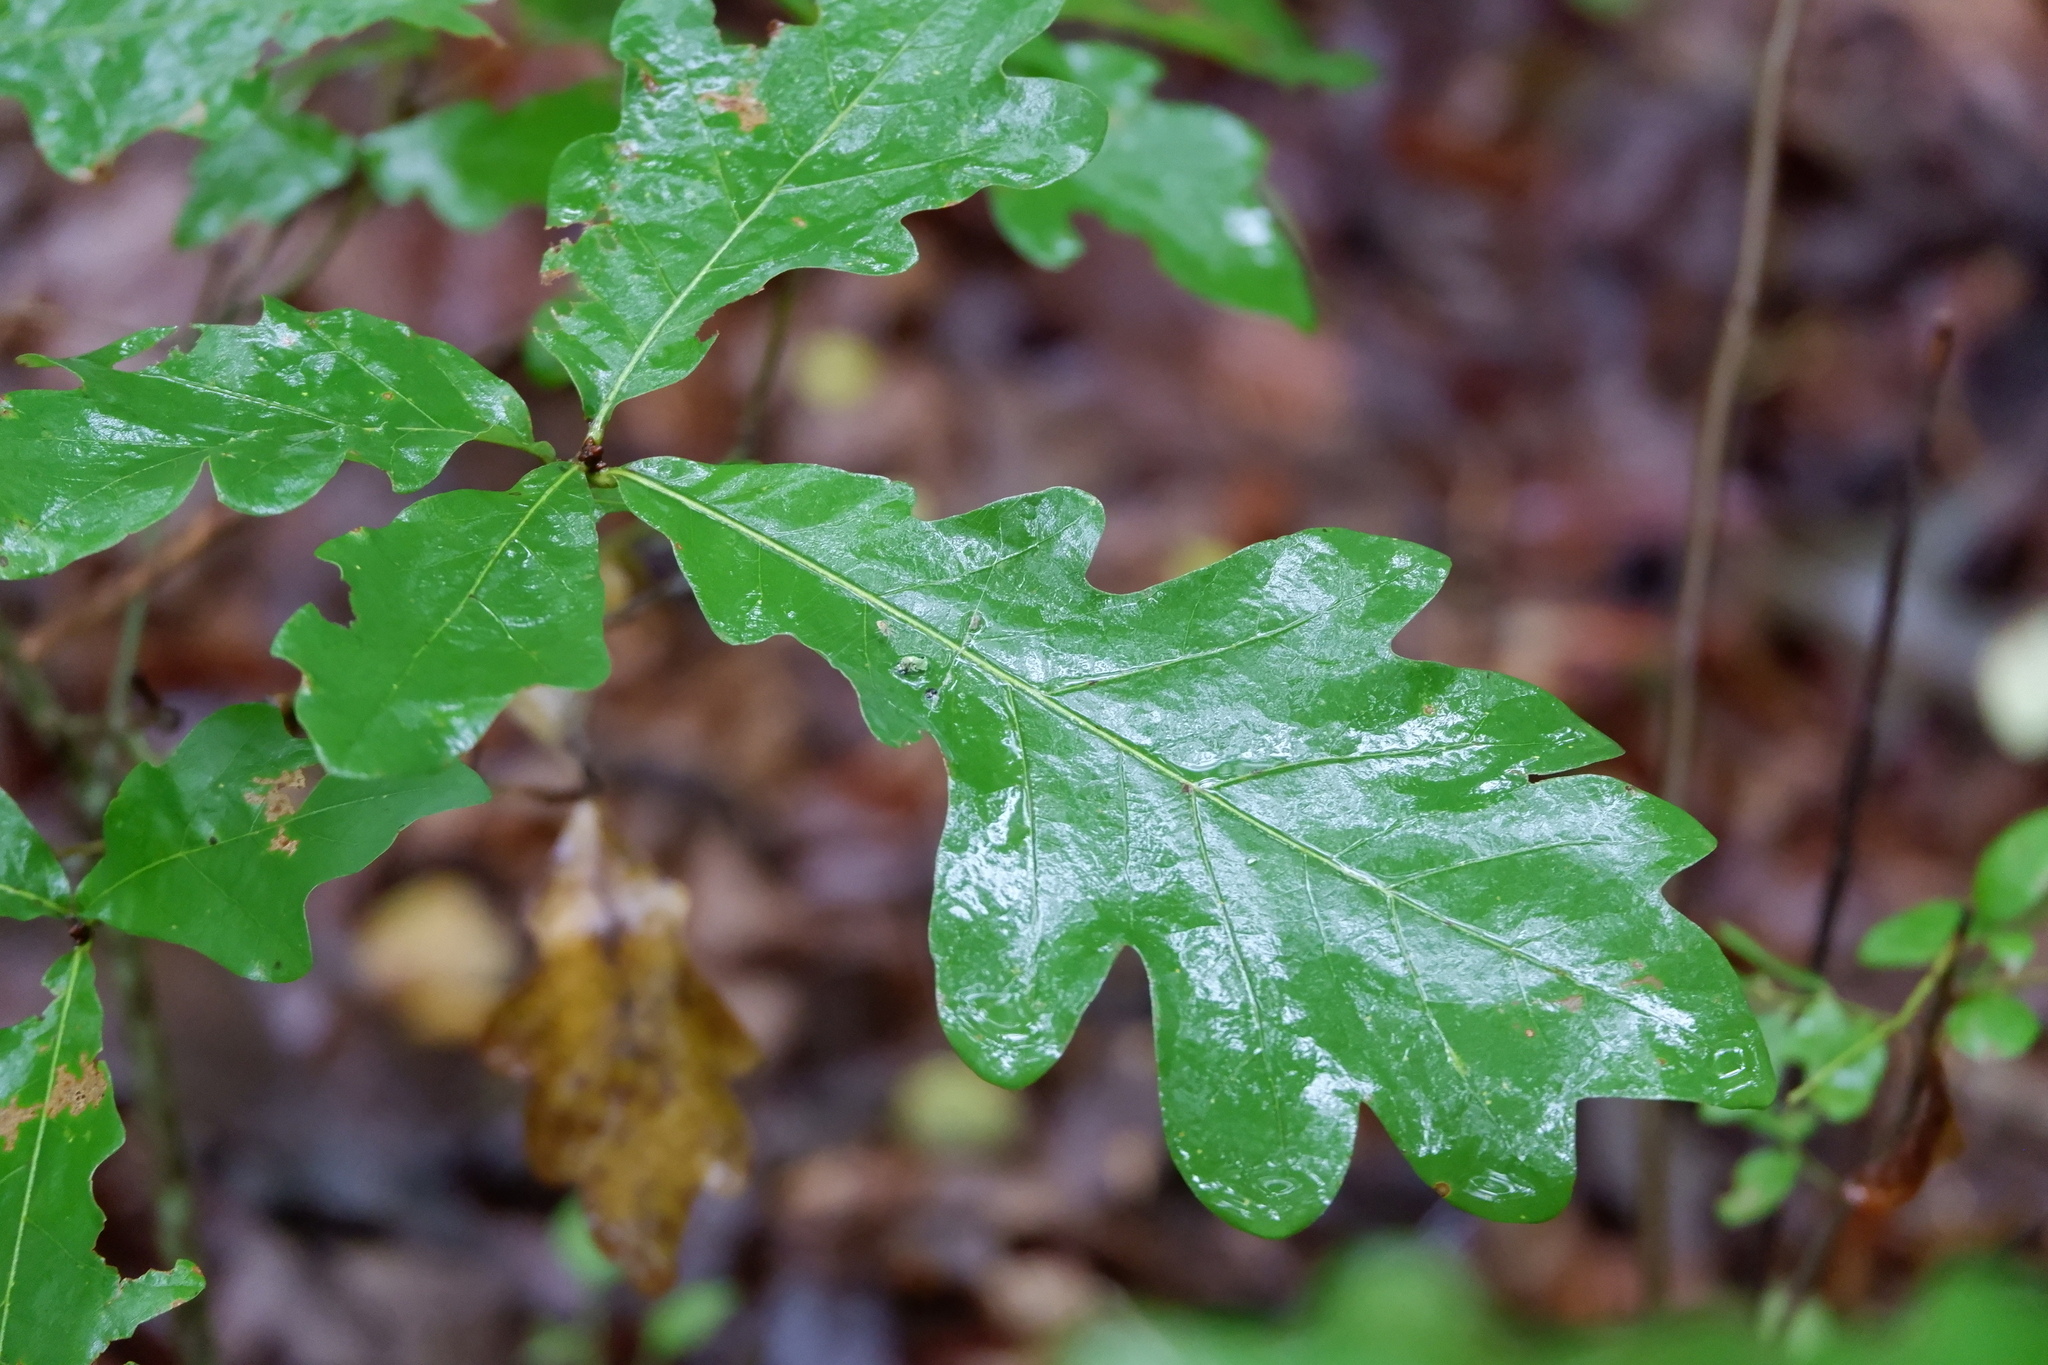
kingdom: Plantae
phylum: Tracheophyta
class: Magnoliopsida
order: Fagales
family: Fagaceae
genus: Quercus
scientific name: Quercus alba
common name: White oak
